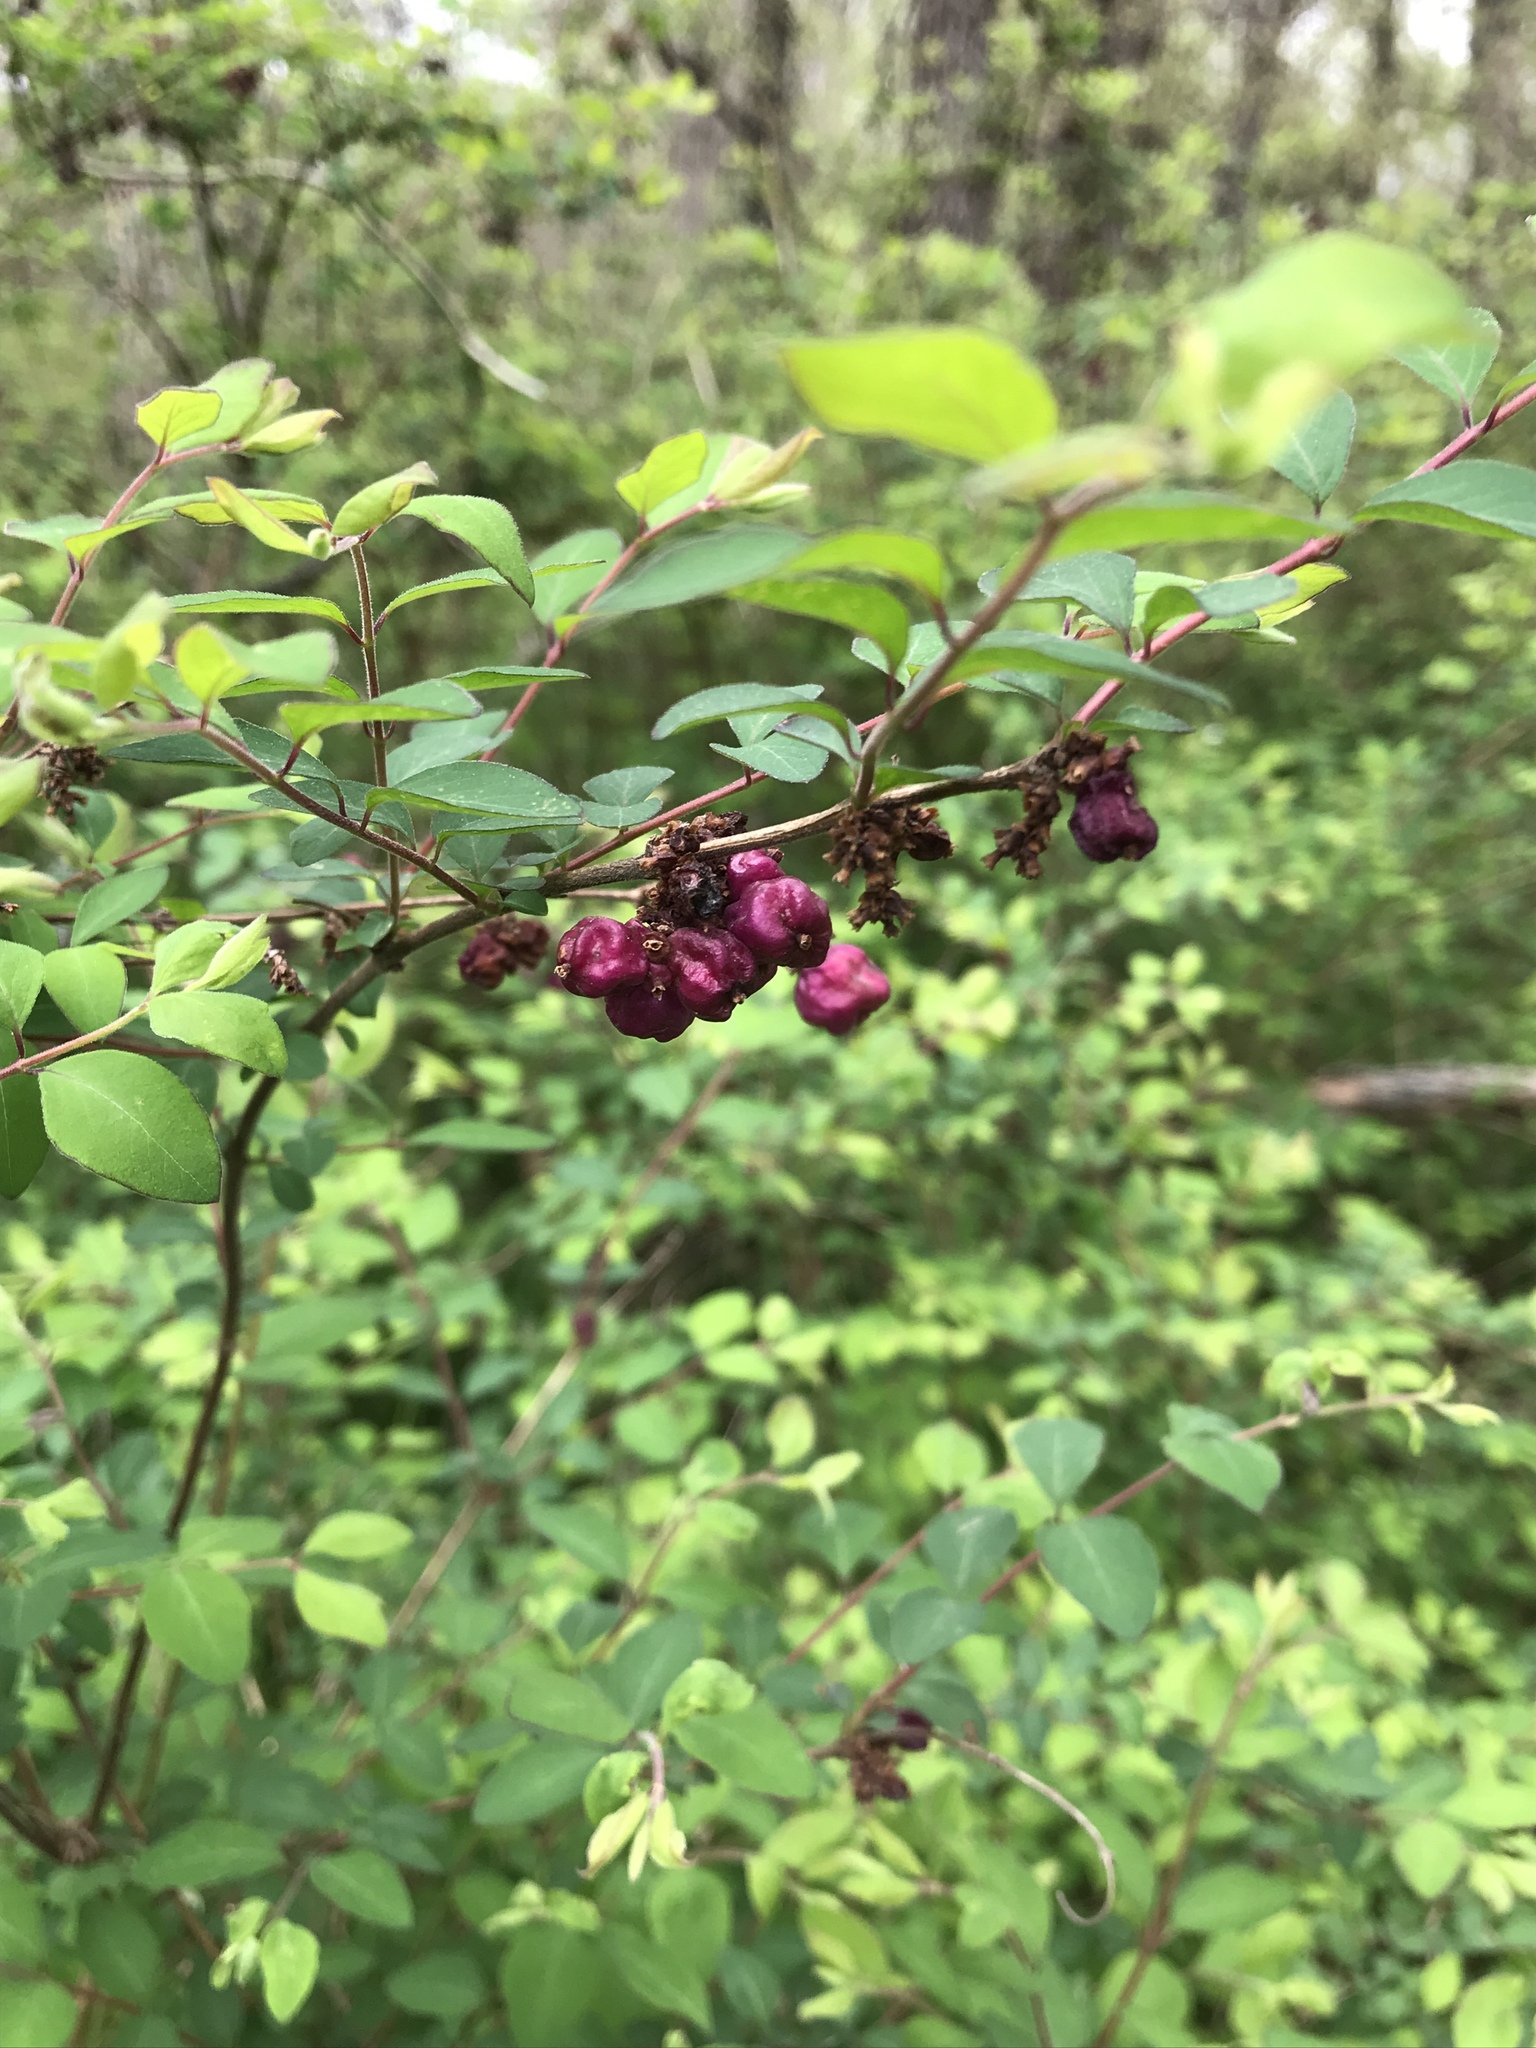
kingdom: Plantae
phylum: Tracheophyta
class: Magnoliopsida
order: Dipsacales
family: Caprifoliaceae
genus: Symphoricarpos
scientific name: Symphoricarpos orbiculatus
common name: Coralberry
